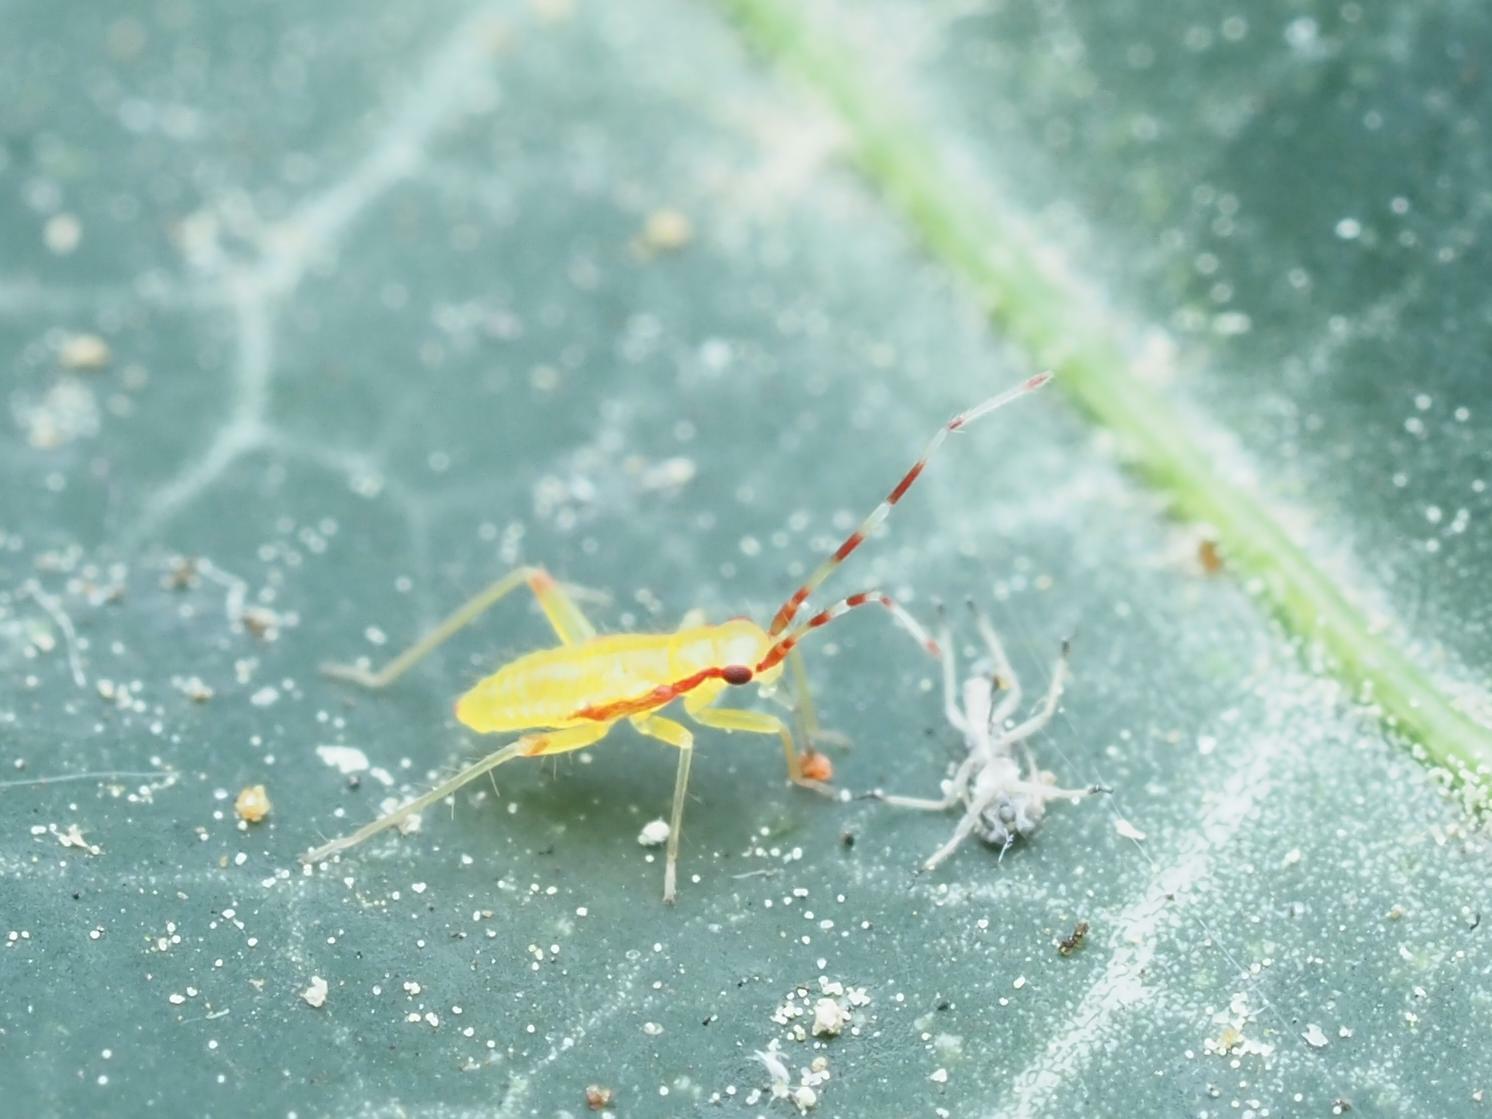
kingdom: Animalia
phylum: Arthropoda
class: Insecta
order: Hemiptera
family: Miridae
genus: Campyloneura
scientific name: Campyloneura virgula
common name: Predatory bug
